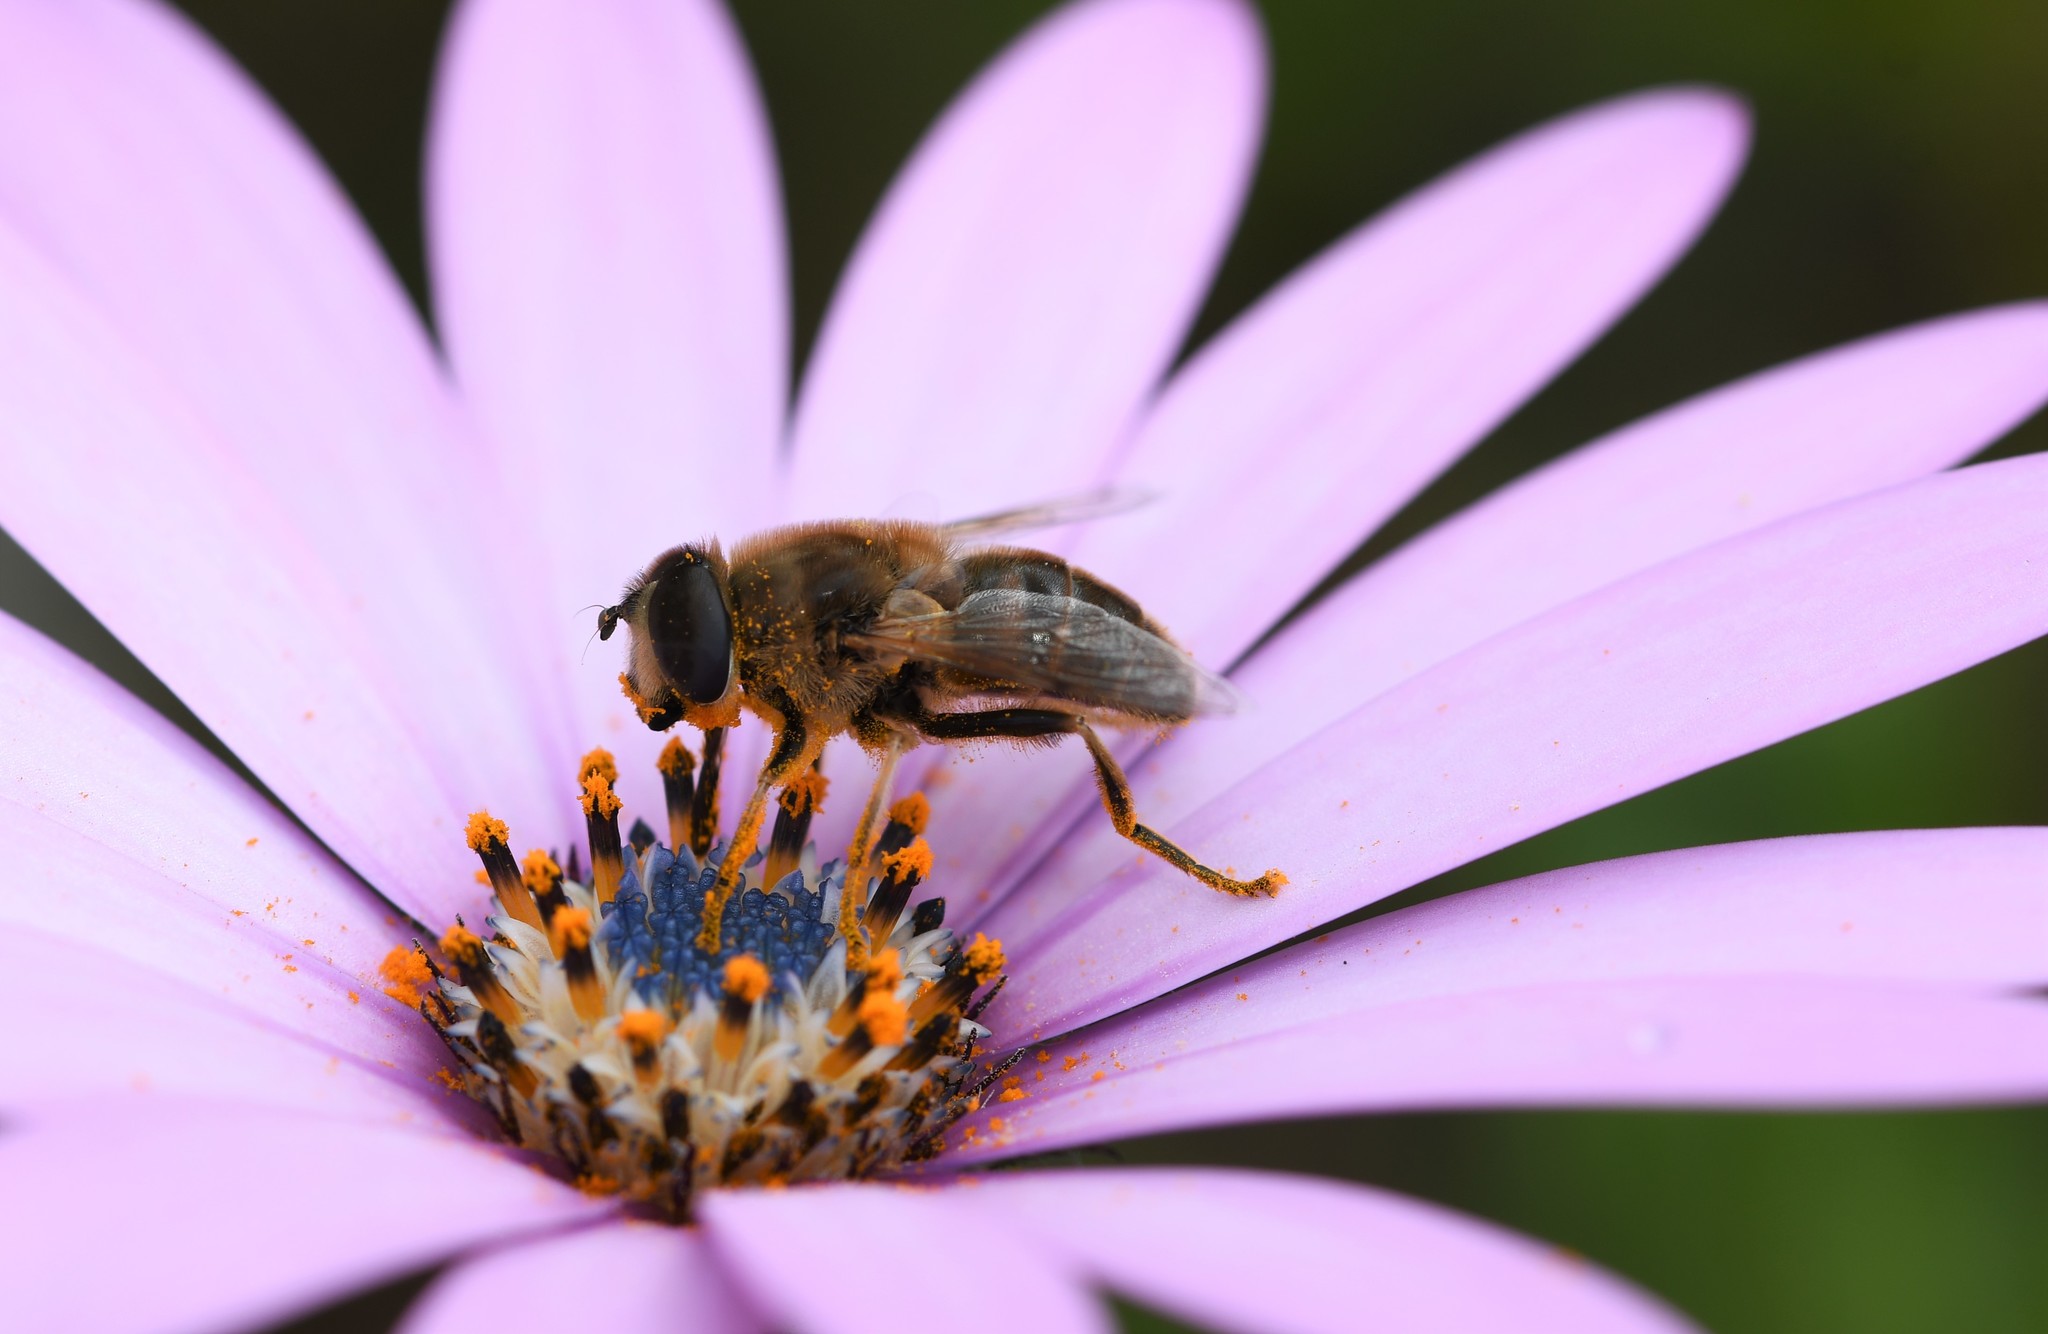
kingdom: Animalia
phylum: Arthropoda
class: Insecta
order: Diptera
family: Syrphidae
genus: Eristalis
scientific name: Eristalis tenax
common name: Drone fly
